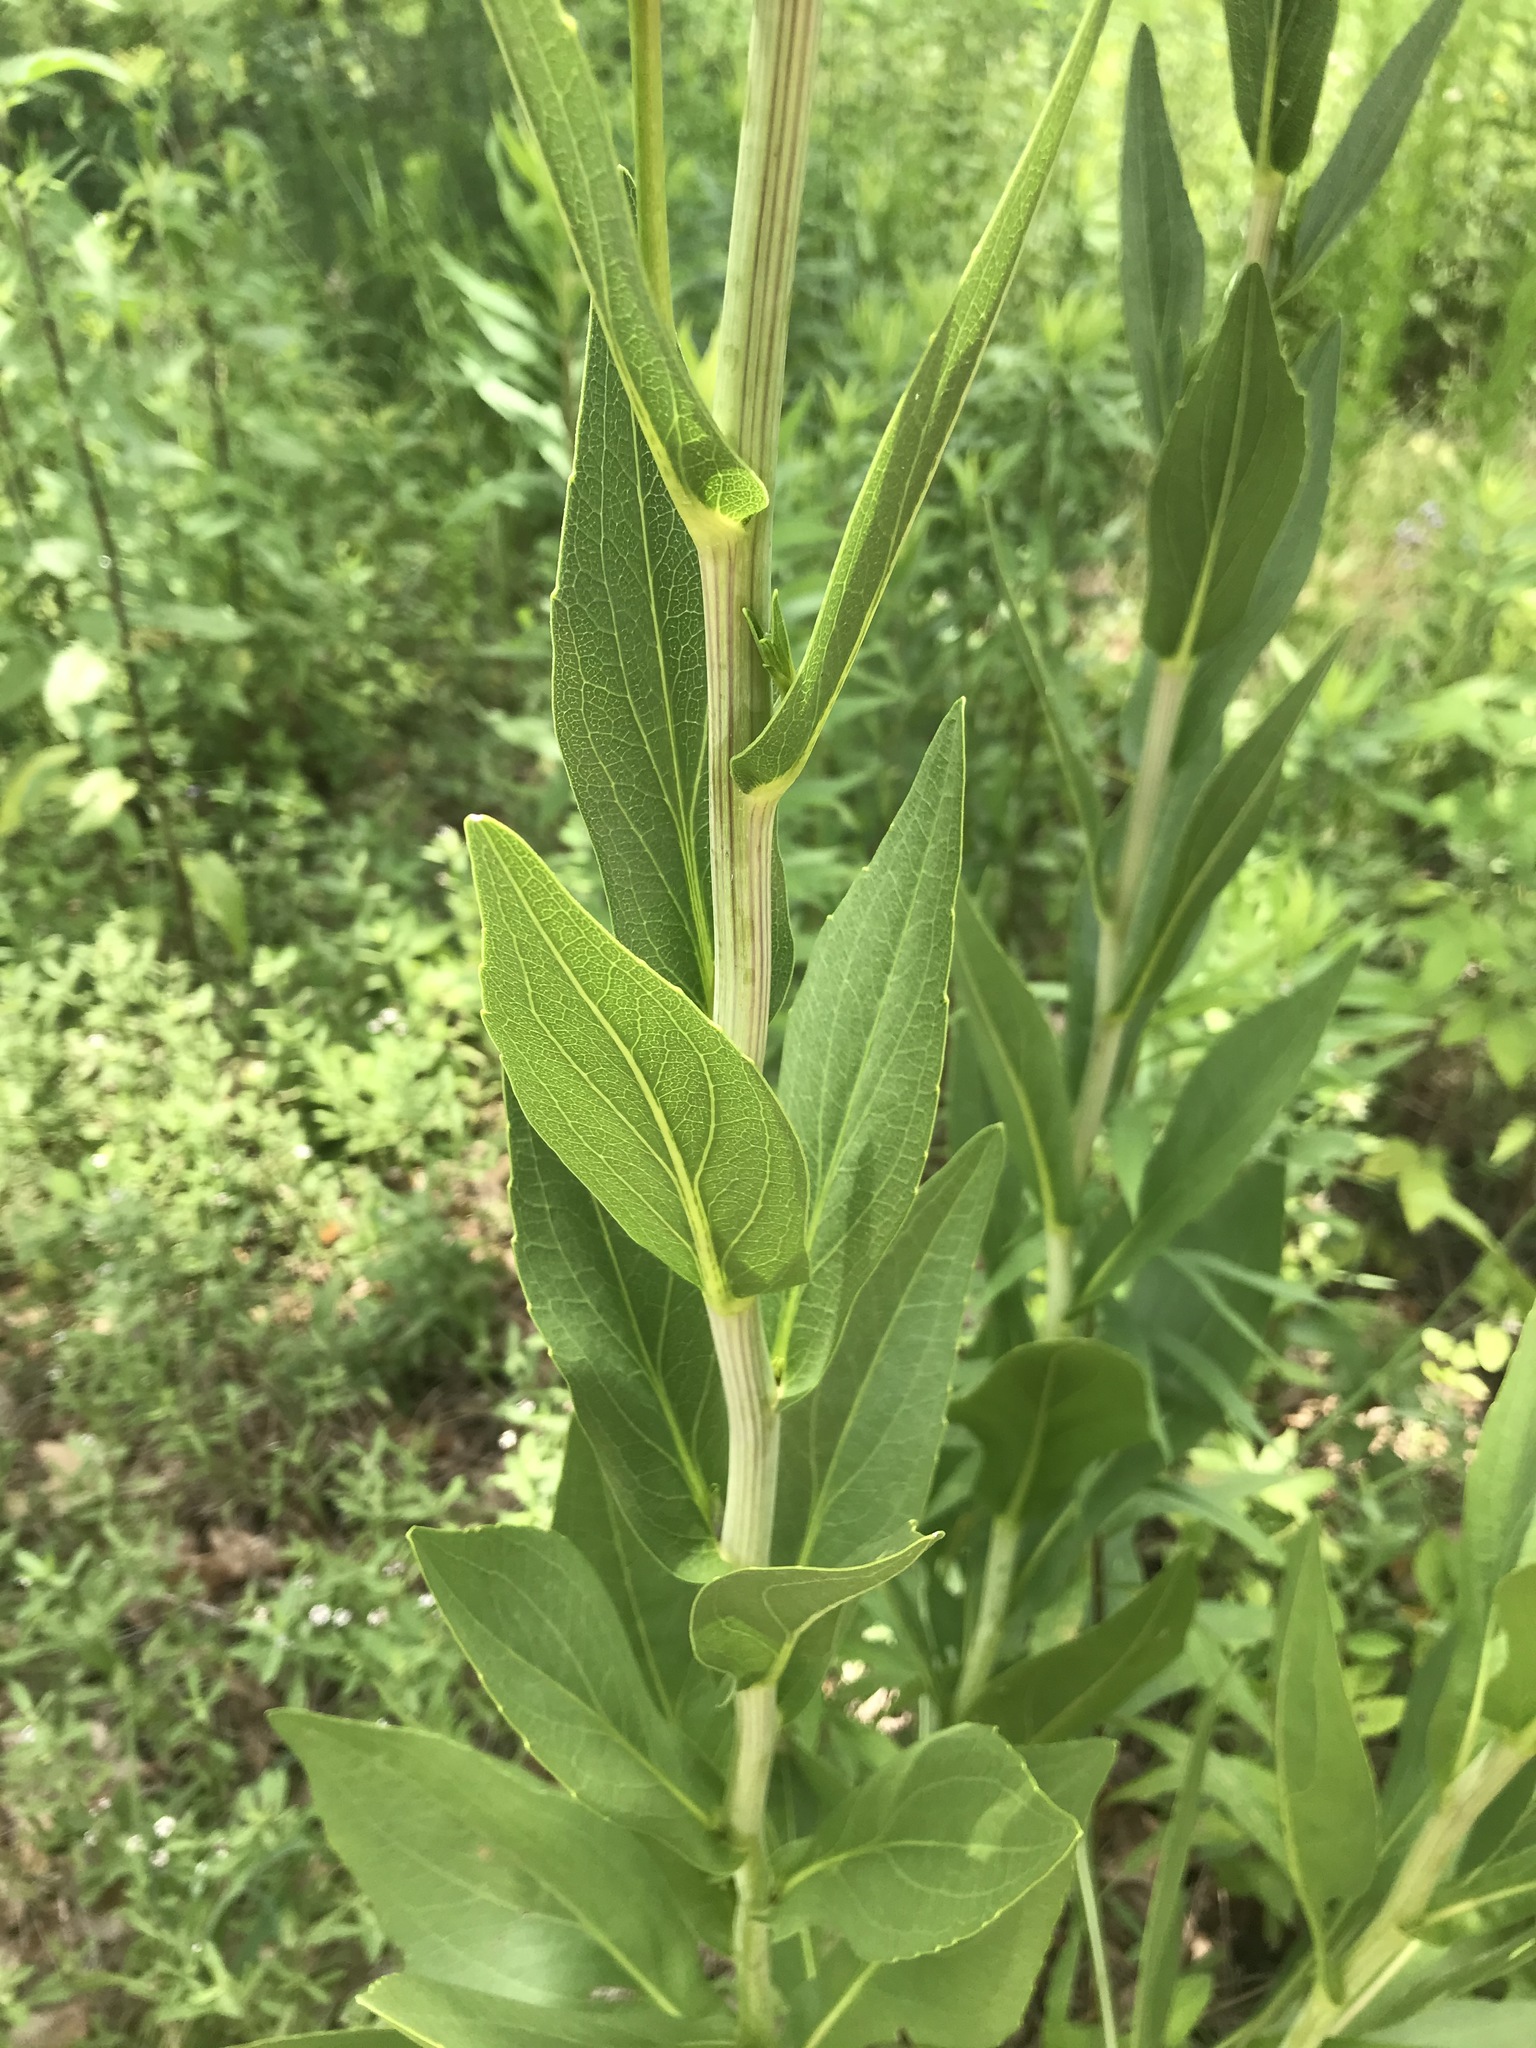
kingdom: Plantae
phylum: Tracheophyta
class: Magnoliopsida
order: Asterales
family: Asteraceae
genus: Rudbeckia
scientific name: Rudbeckia texana
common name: Texas coneflower
